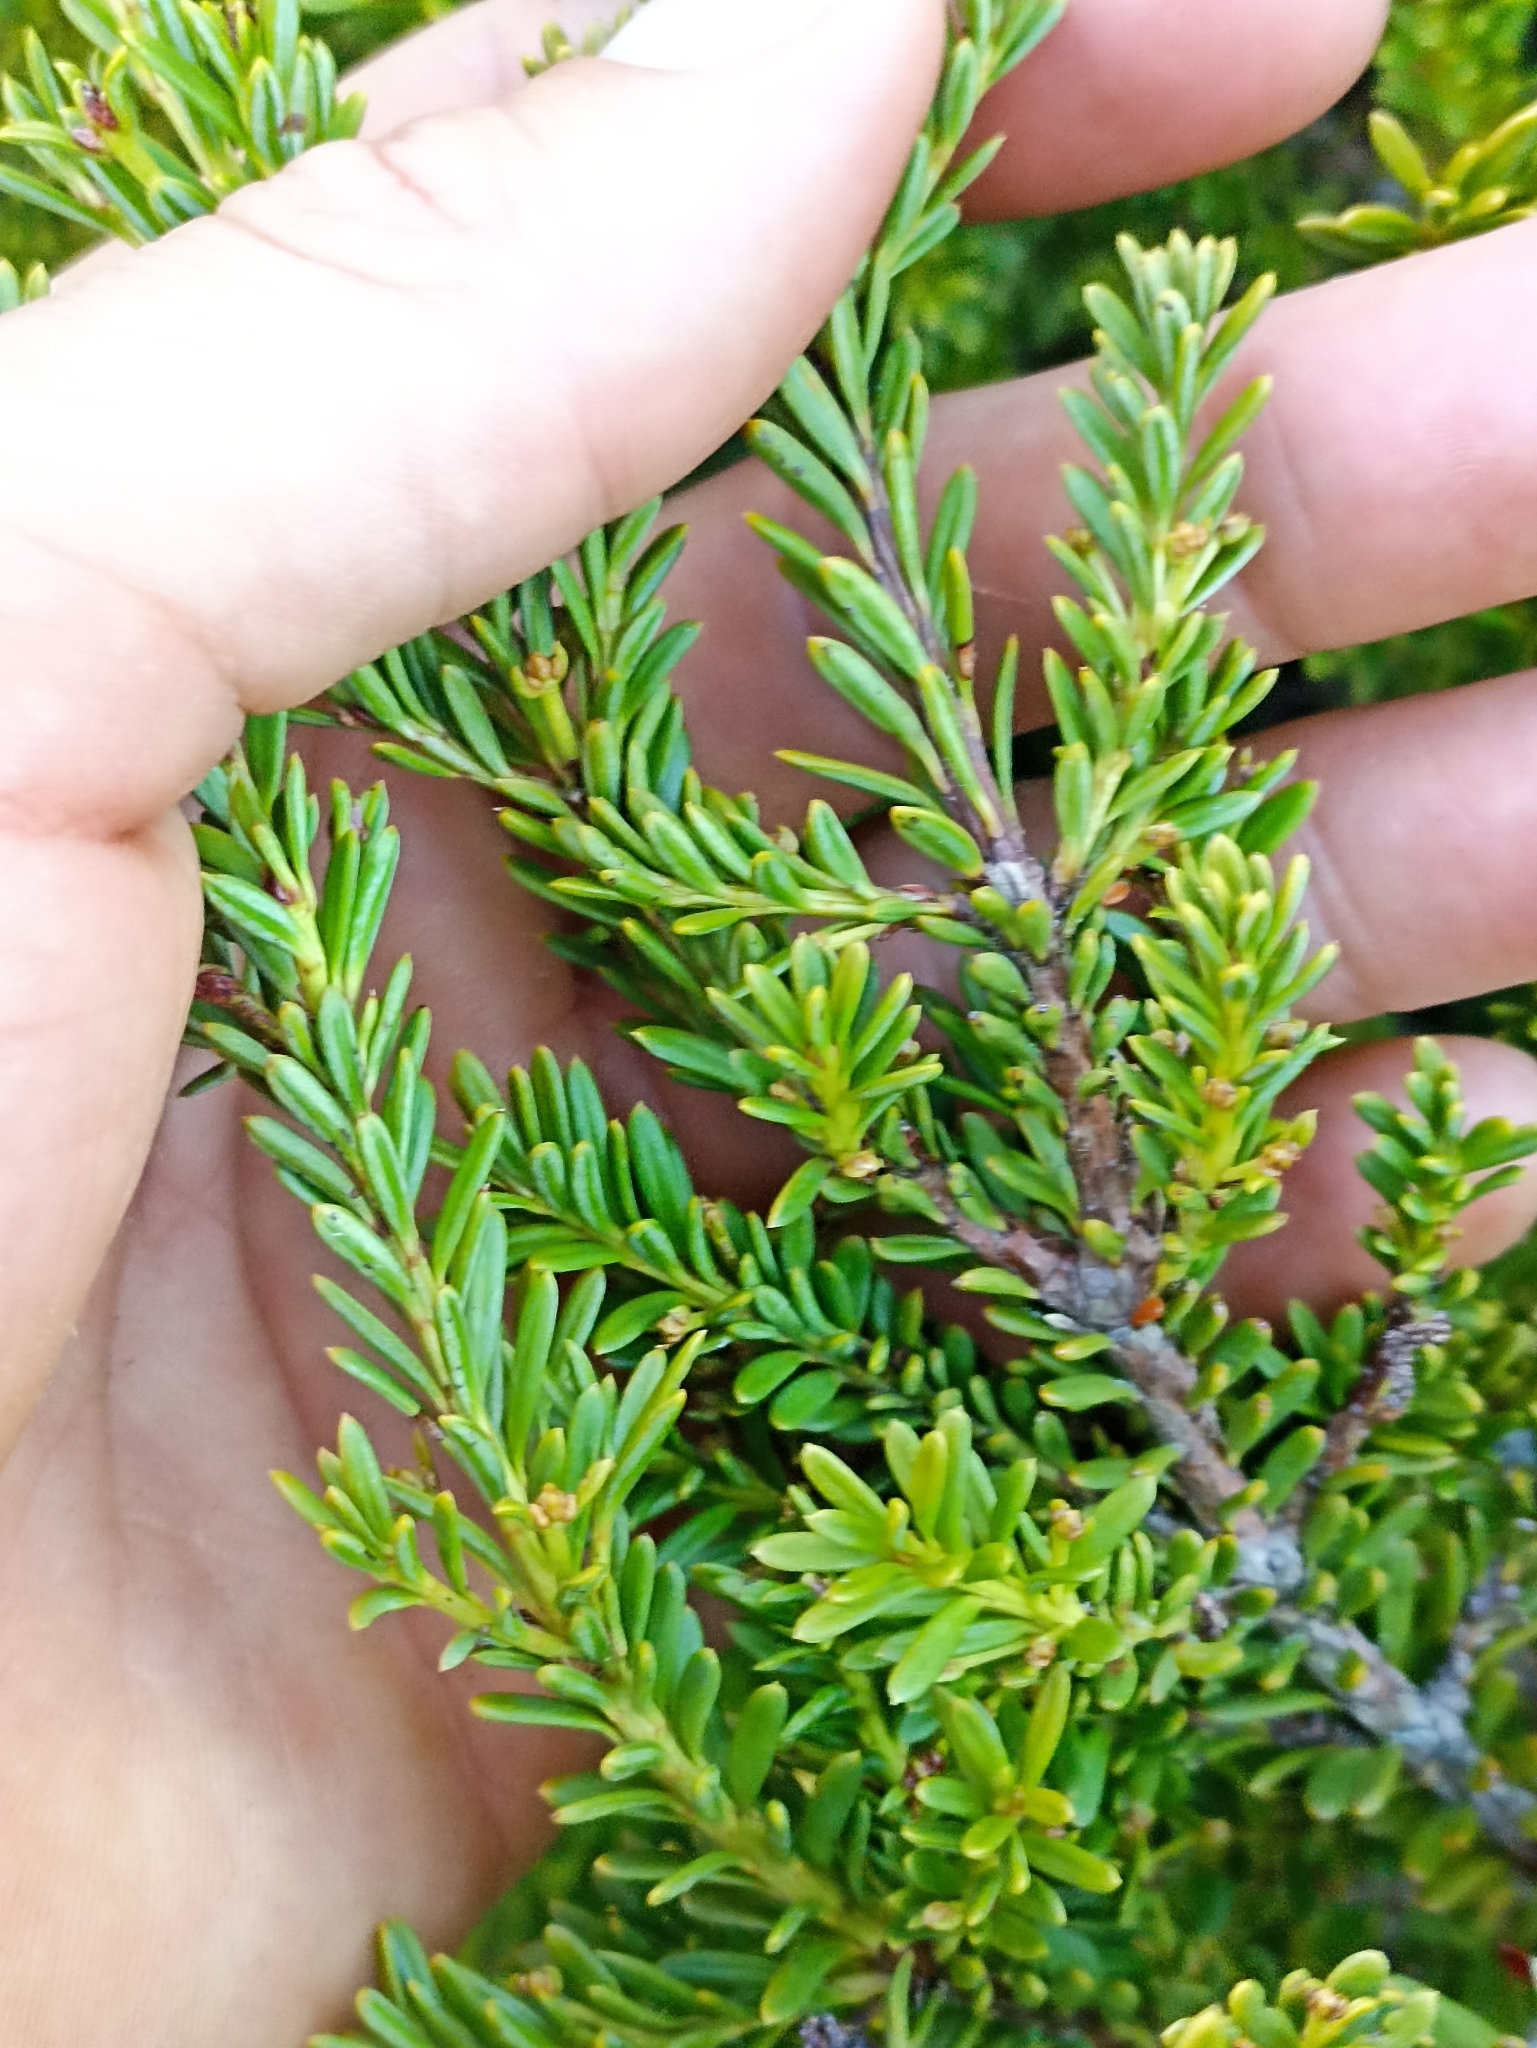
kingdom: Plantae
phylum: Tracheophyta
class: Pinopsida
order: Pinales
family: Podocarpaceae
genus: Podocarpus
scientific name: Podocarpus nivalis
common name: Alpine totara
